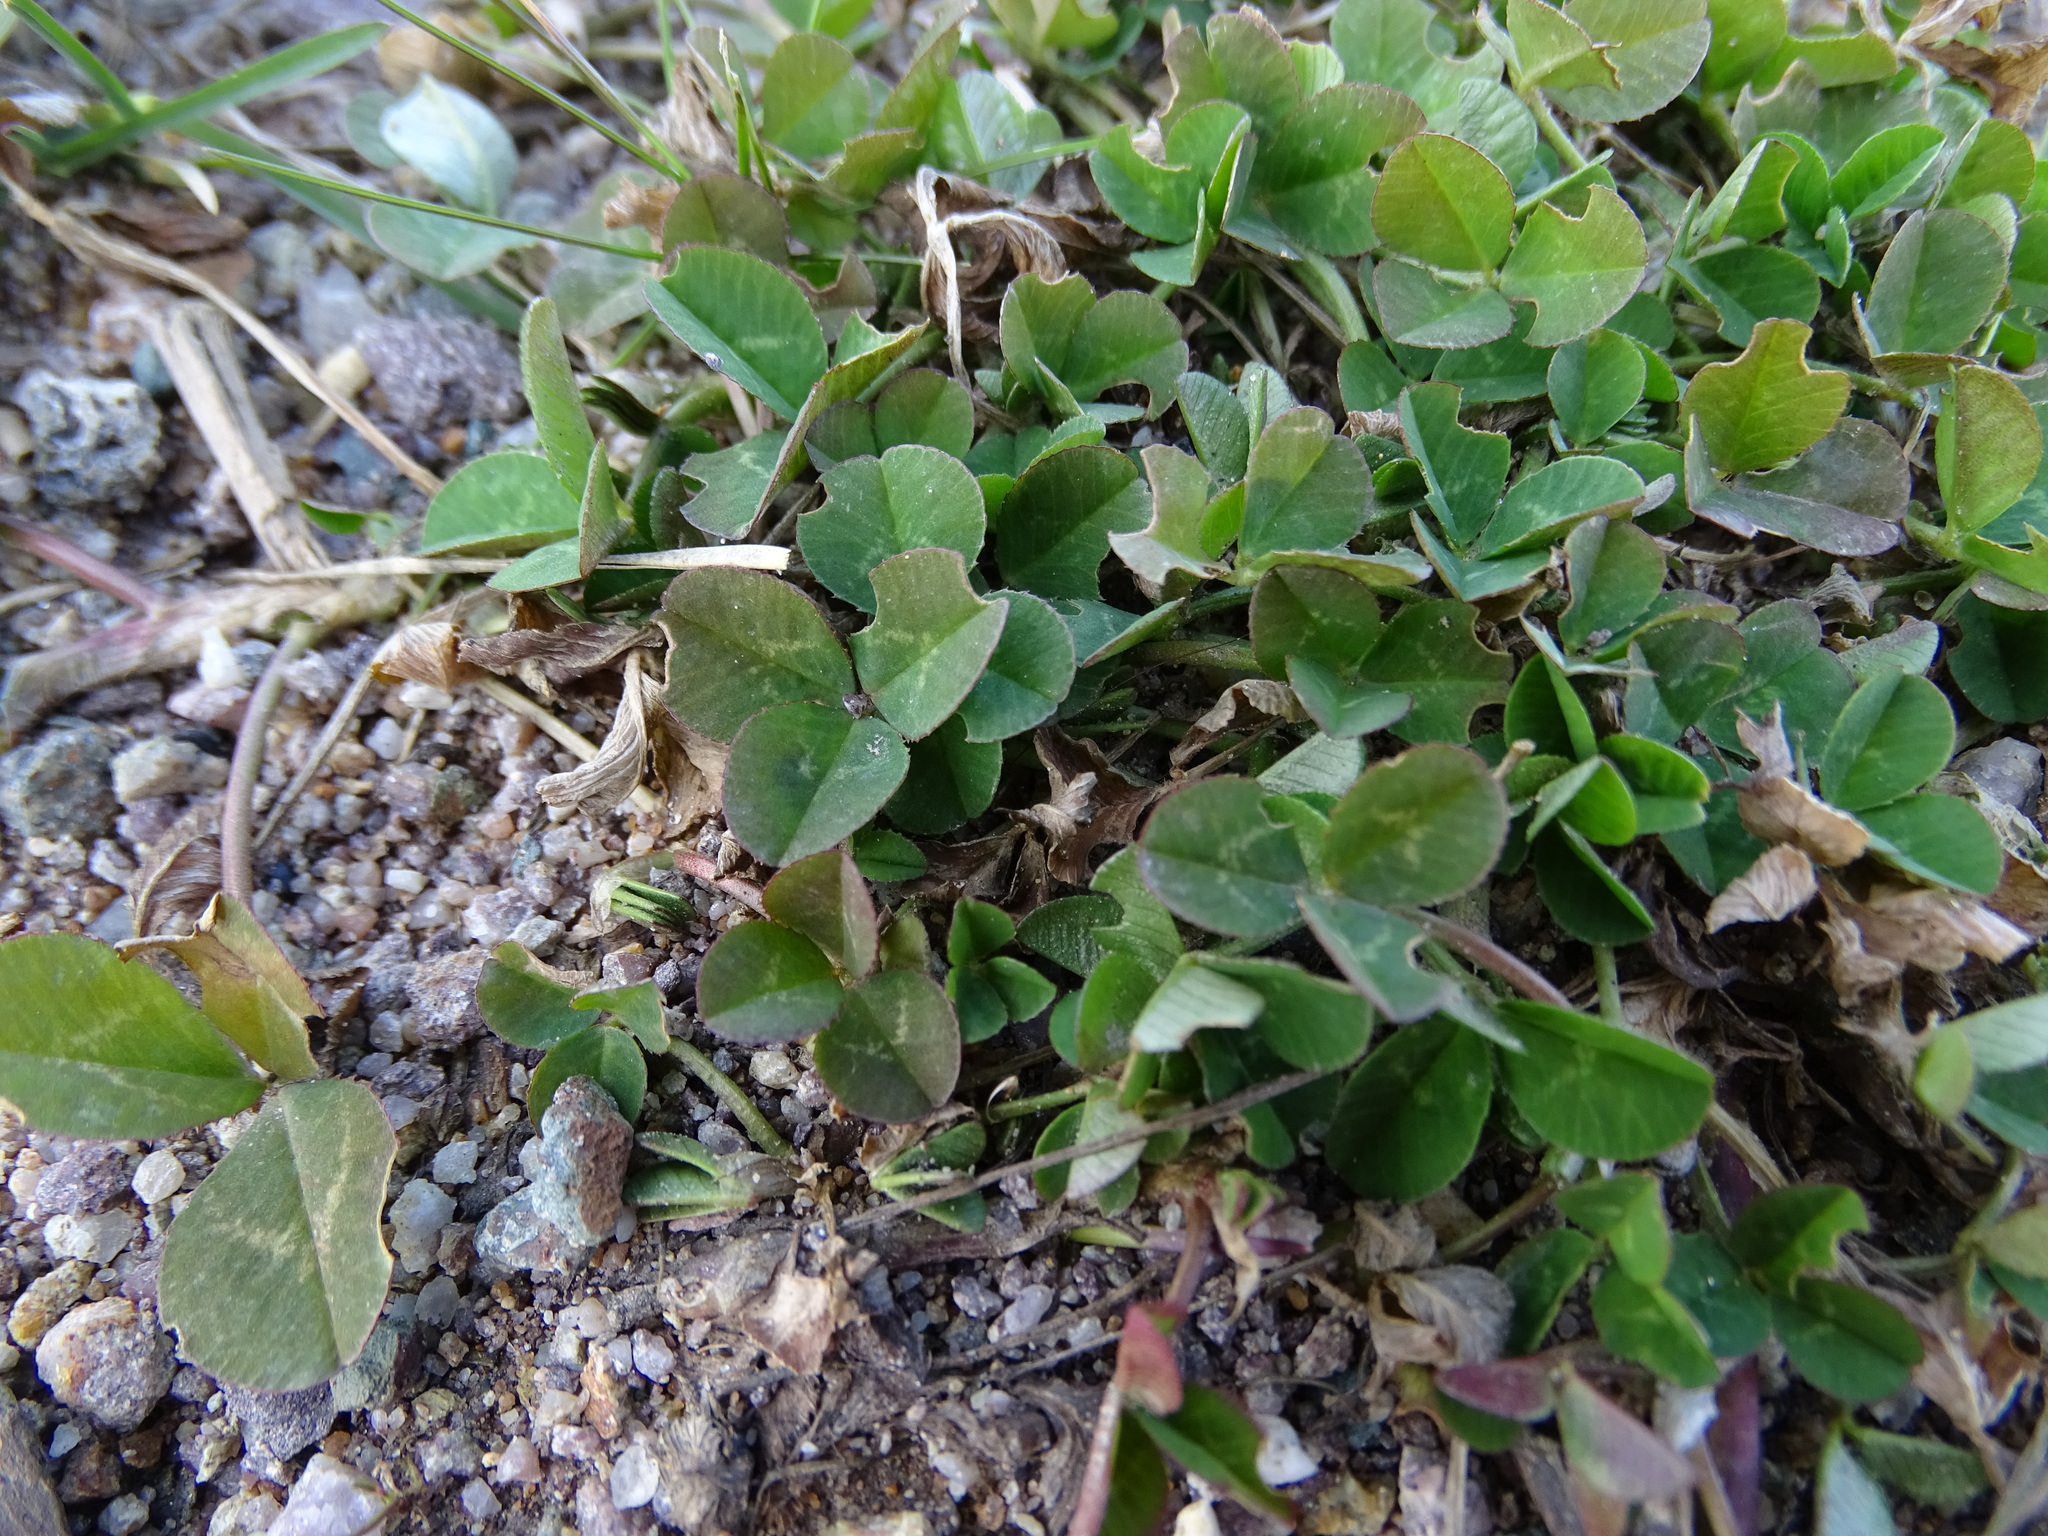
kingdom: Plantae
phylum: Tracheophyta
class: Magnoliopsida
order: Fabales
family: Fabaceae
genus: Trifolium
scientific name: Trifolium repens
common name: White clover
